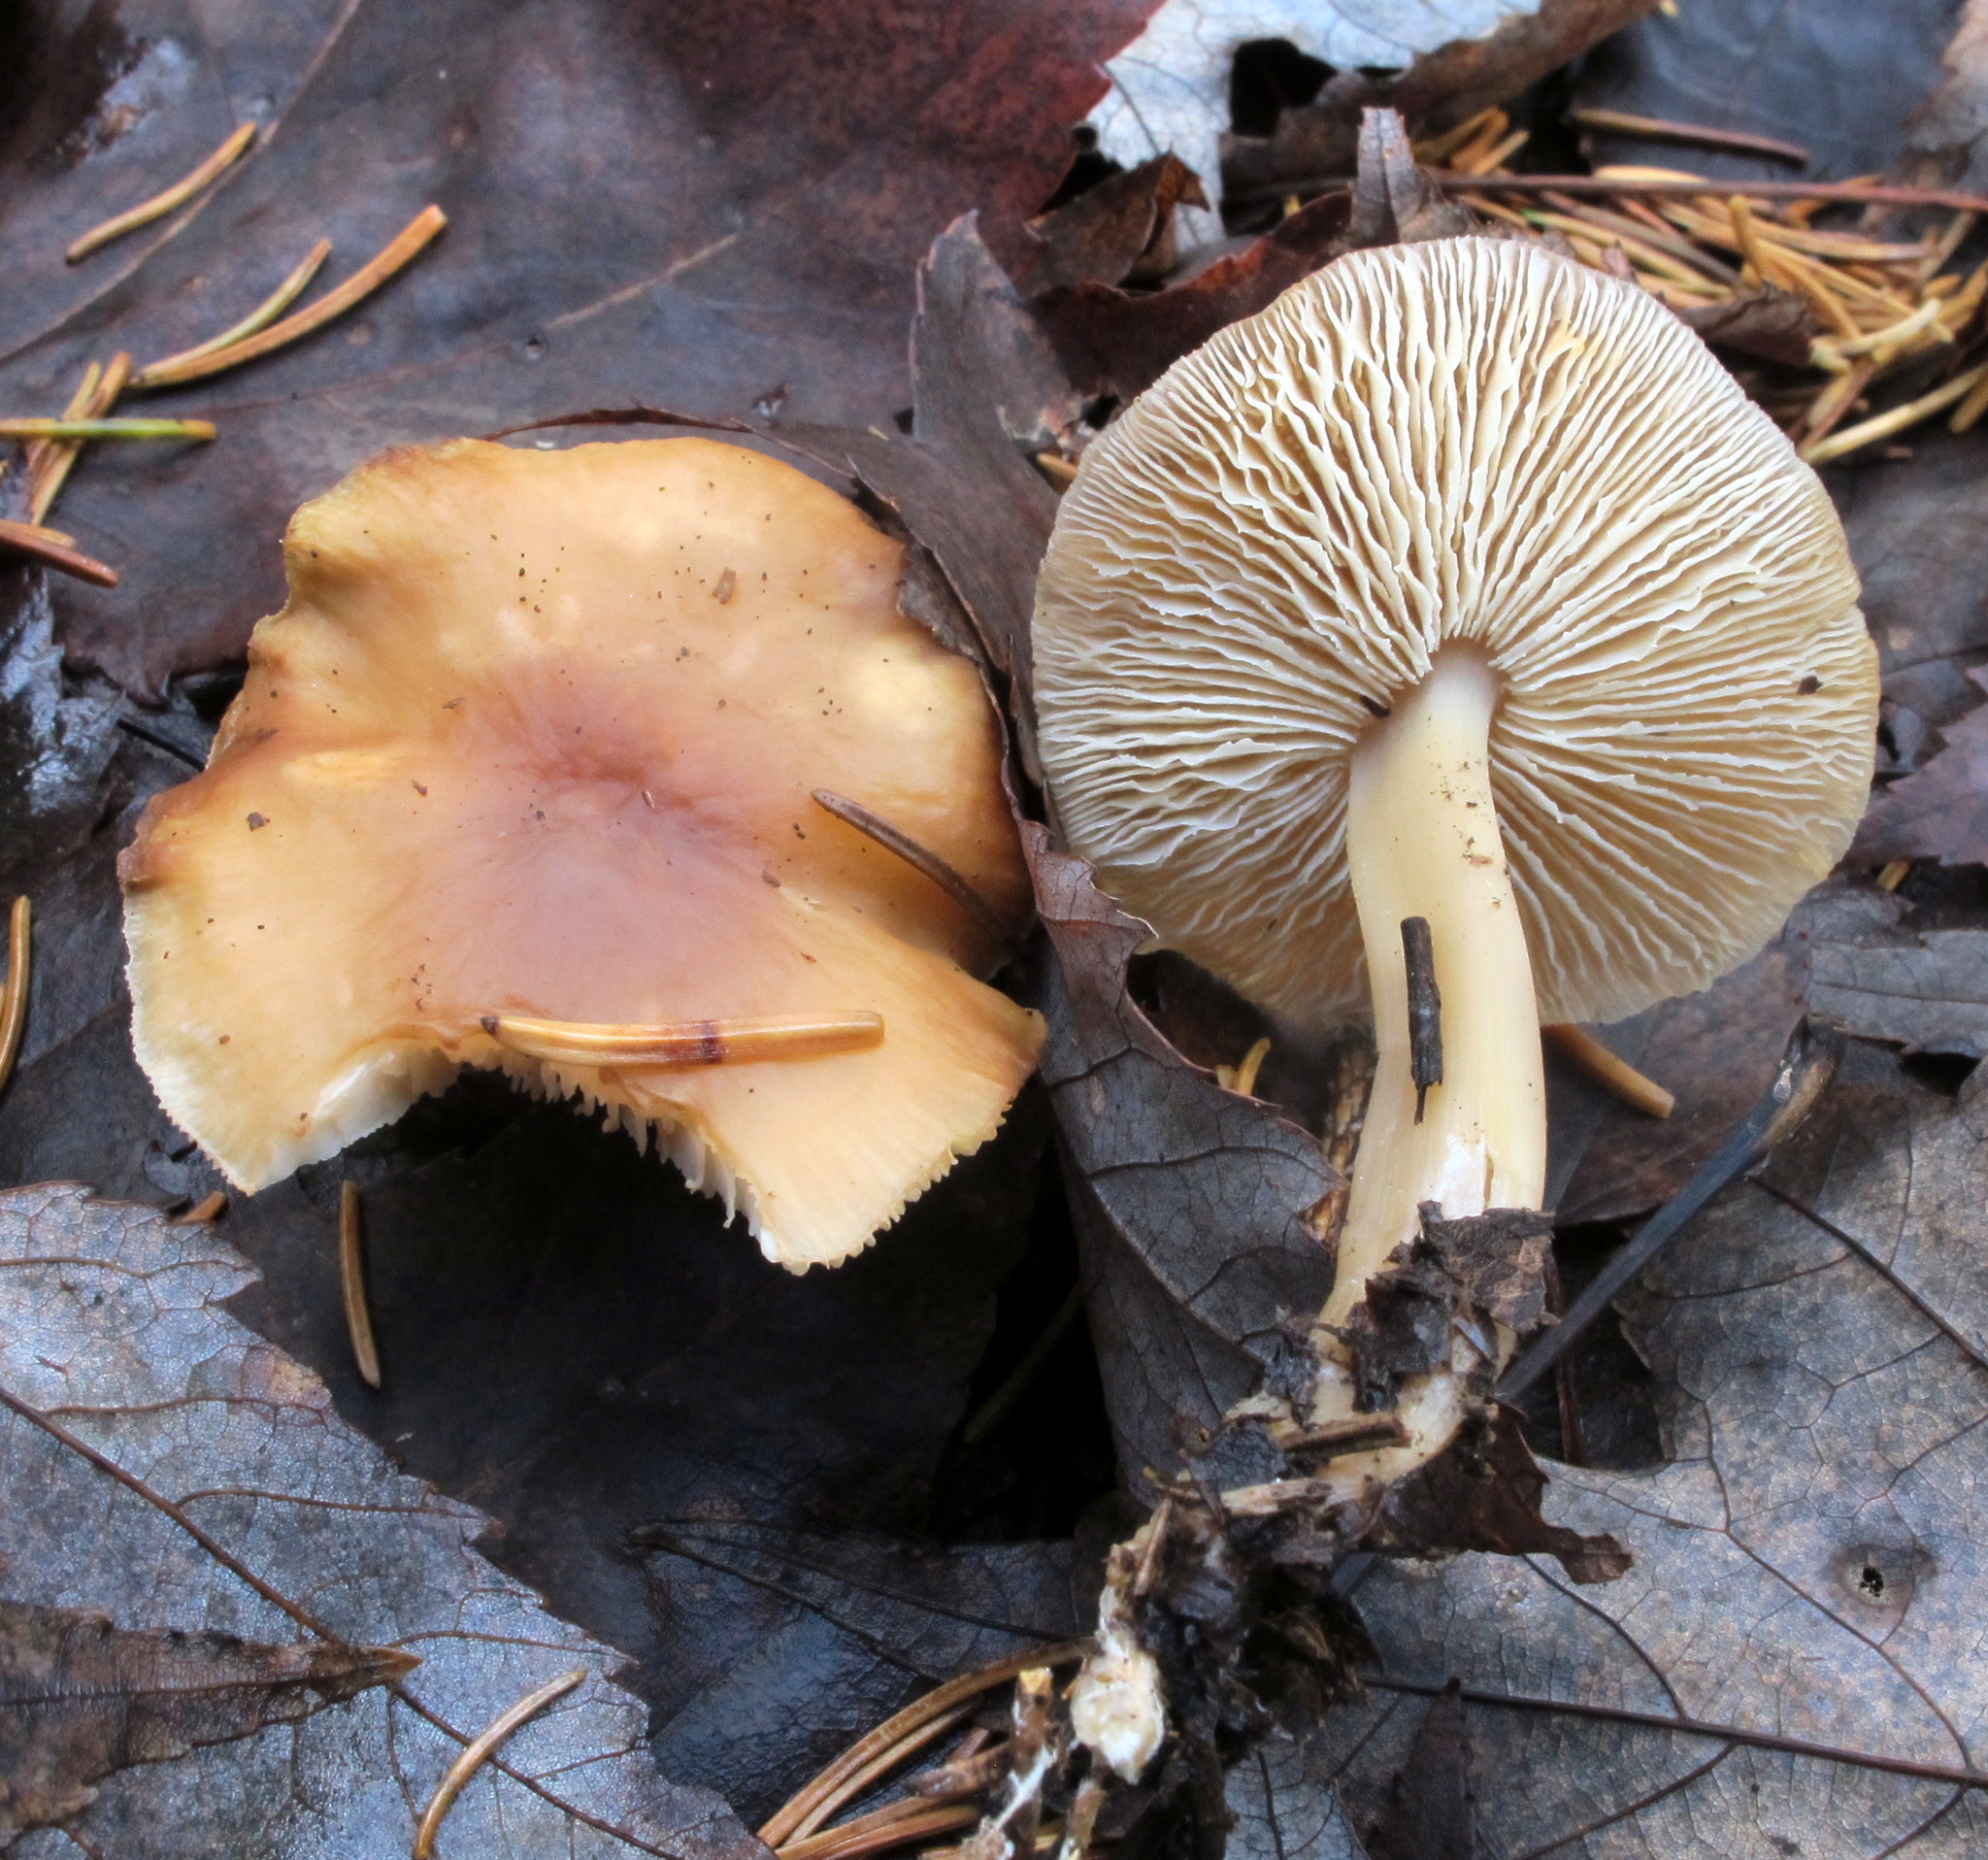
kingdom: Fungi
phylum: Basidiomycota
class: Agaricomycetes
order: Agaricales
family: Omphalotaceae
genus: Rhodocollybia
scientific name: Rhodocollybia butyracea
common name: Butter cap
